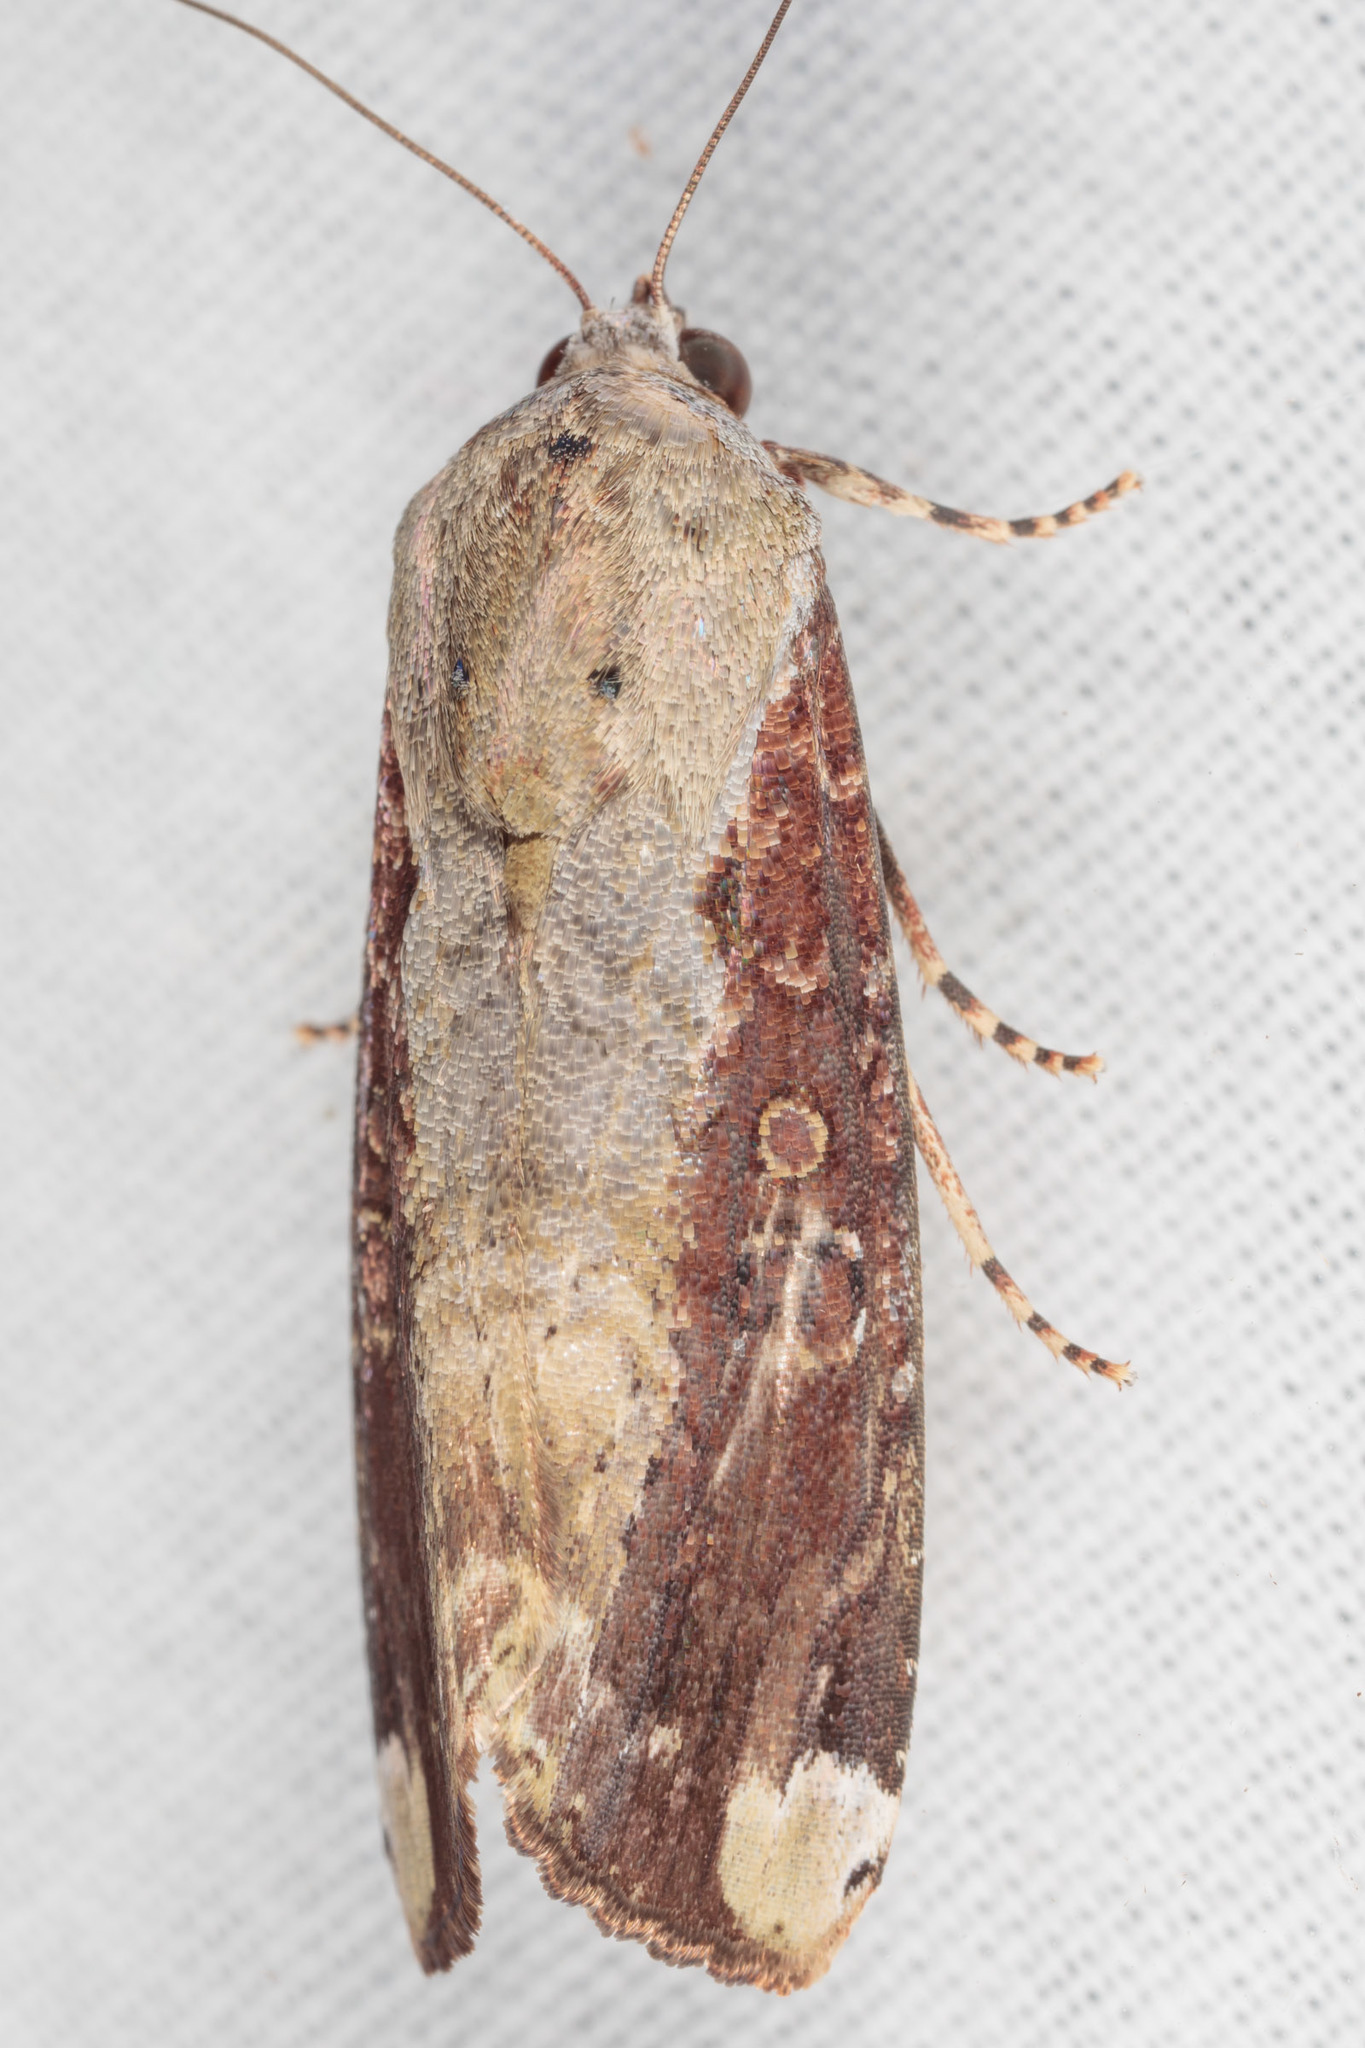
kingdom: Animalia
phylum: Arthropoda
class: Insecta
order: Lepidoptera
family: Noctuidae
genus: Magusa
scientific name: Magusa divaricata
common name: Orb narrow-winged moth
